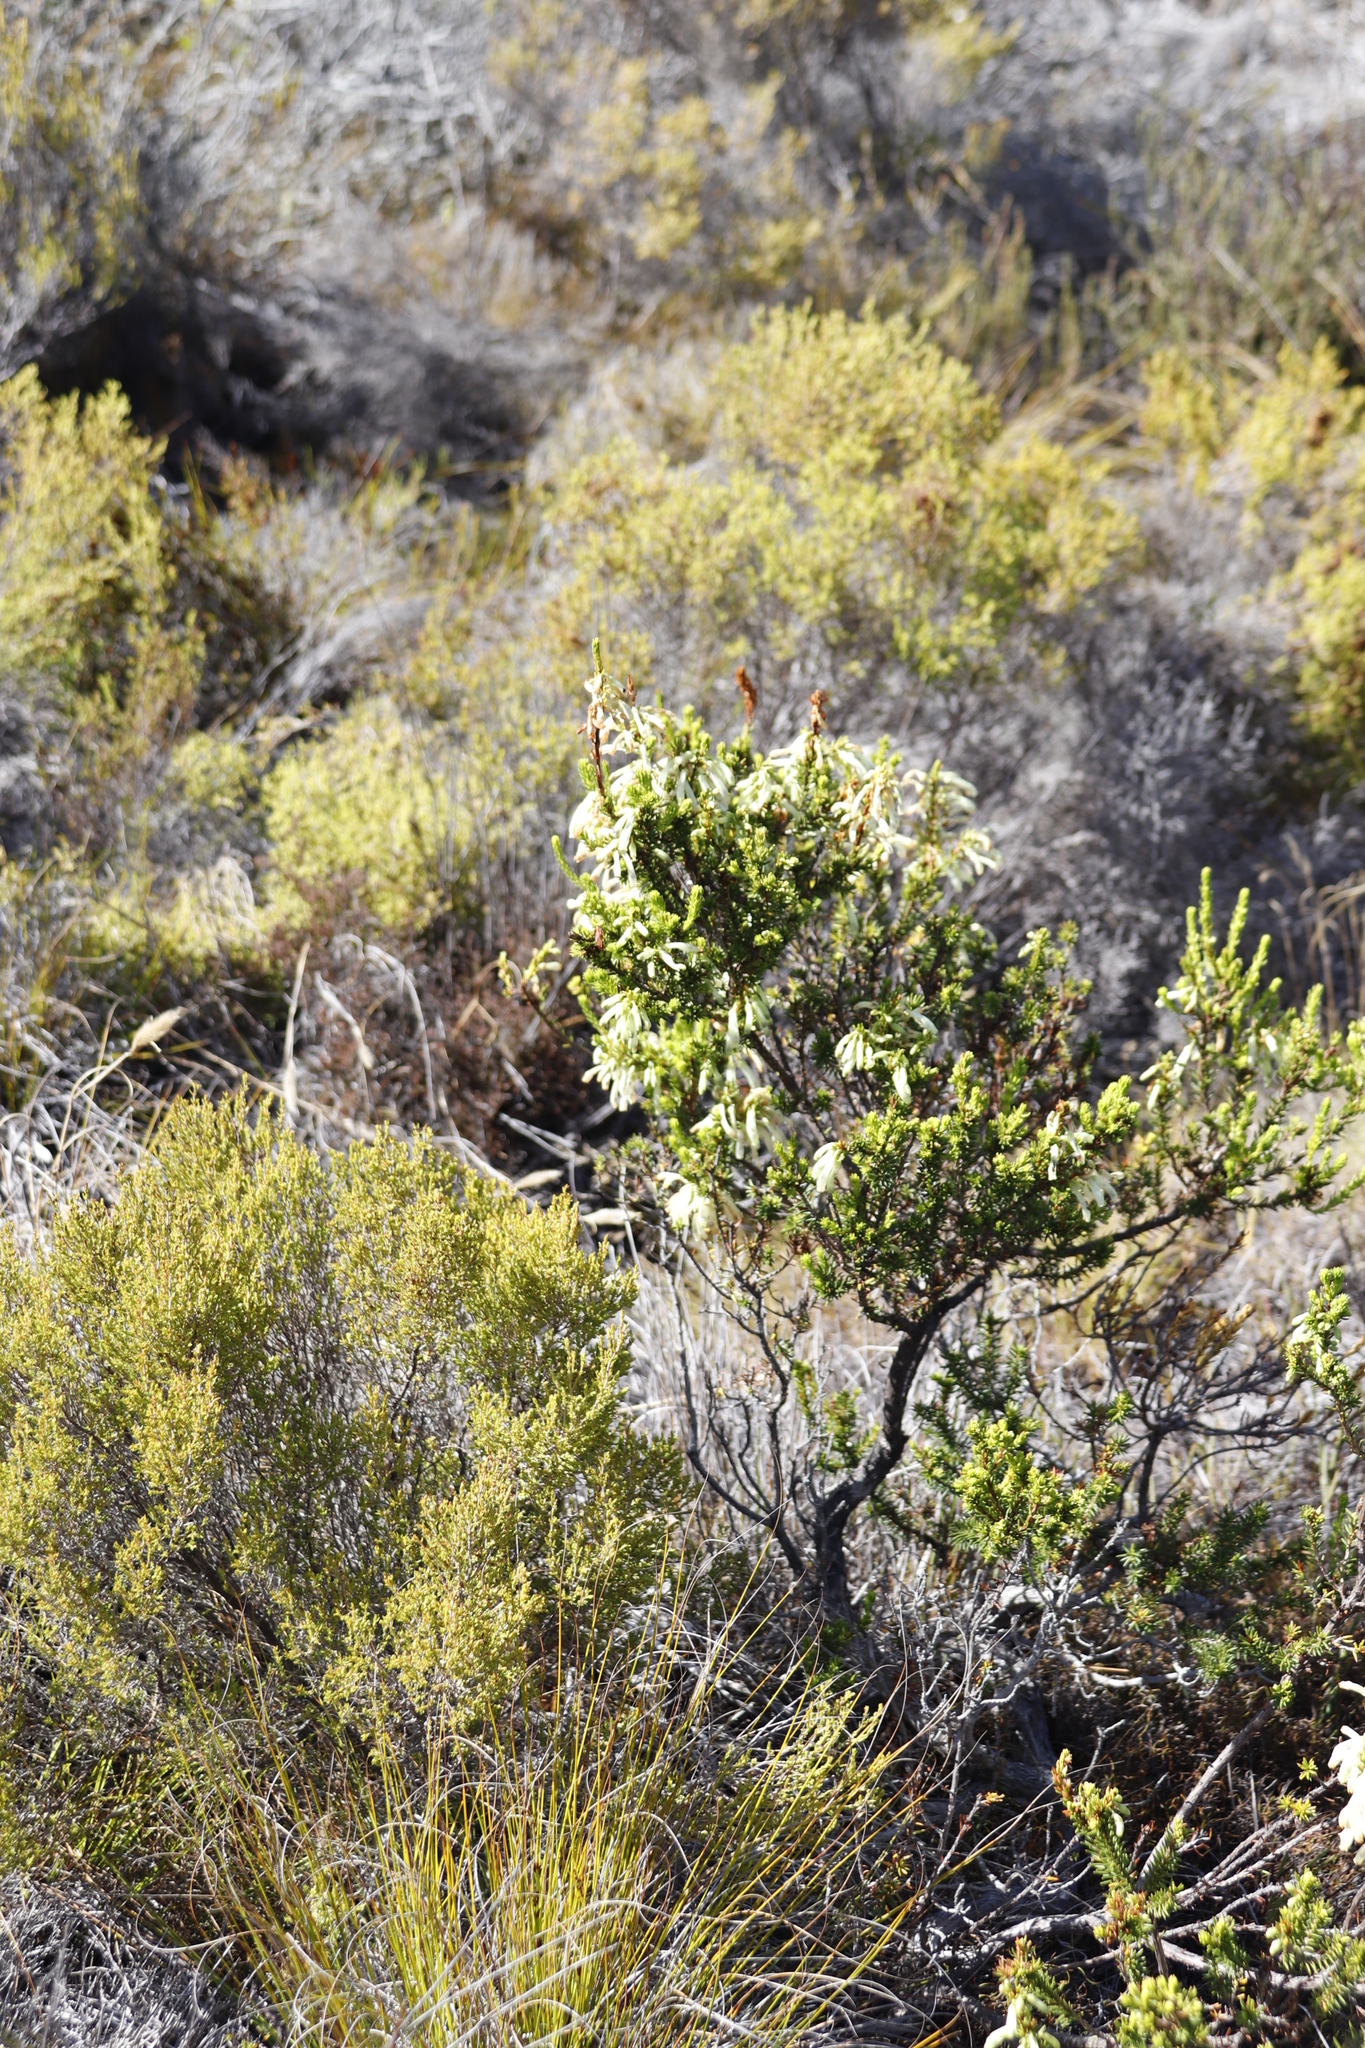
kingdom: Plantae
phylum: Tracheophyta
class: Magnoliopsida
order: Ericales
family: Ericaceae
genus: Erica
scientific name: Erica mammosa
